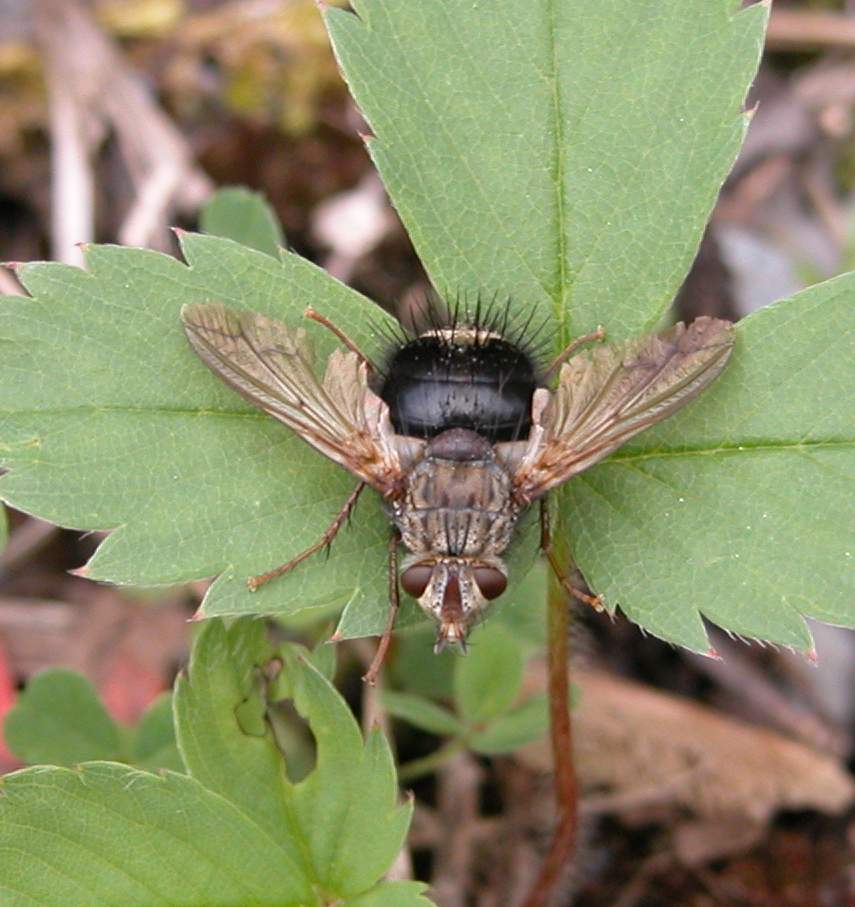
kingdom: Animalia
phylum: Arthropoda
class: Insecta
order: Diptera
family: Tachinidae
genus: Epalpus
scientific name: Epalpus signifer
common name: Early tachinid fly
